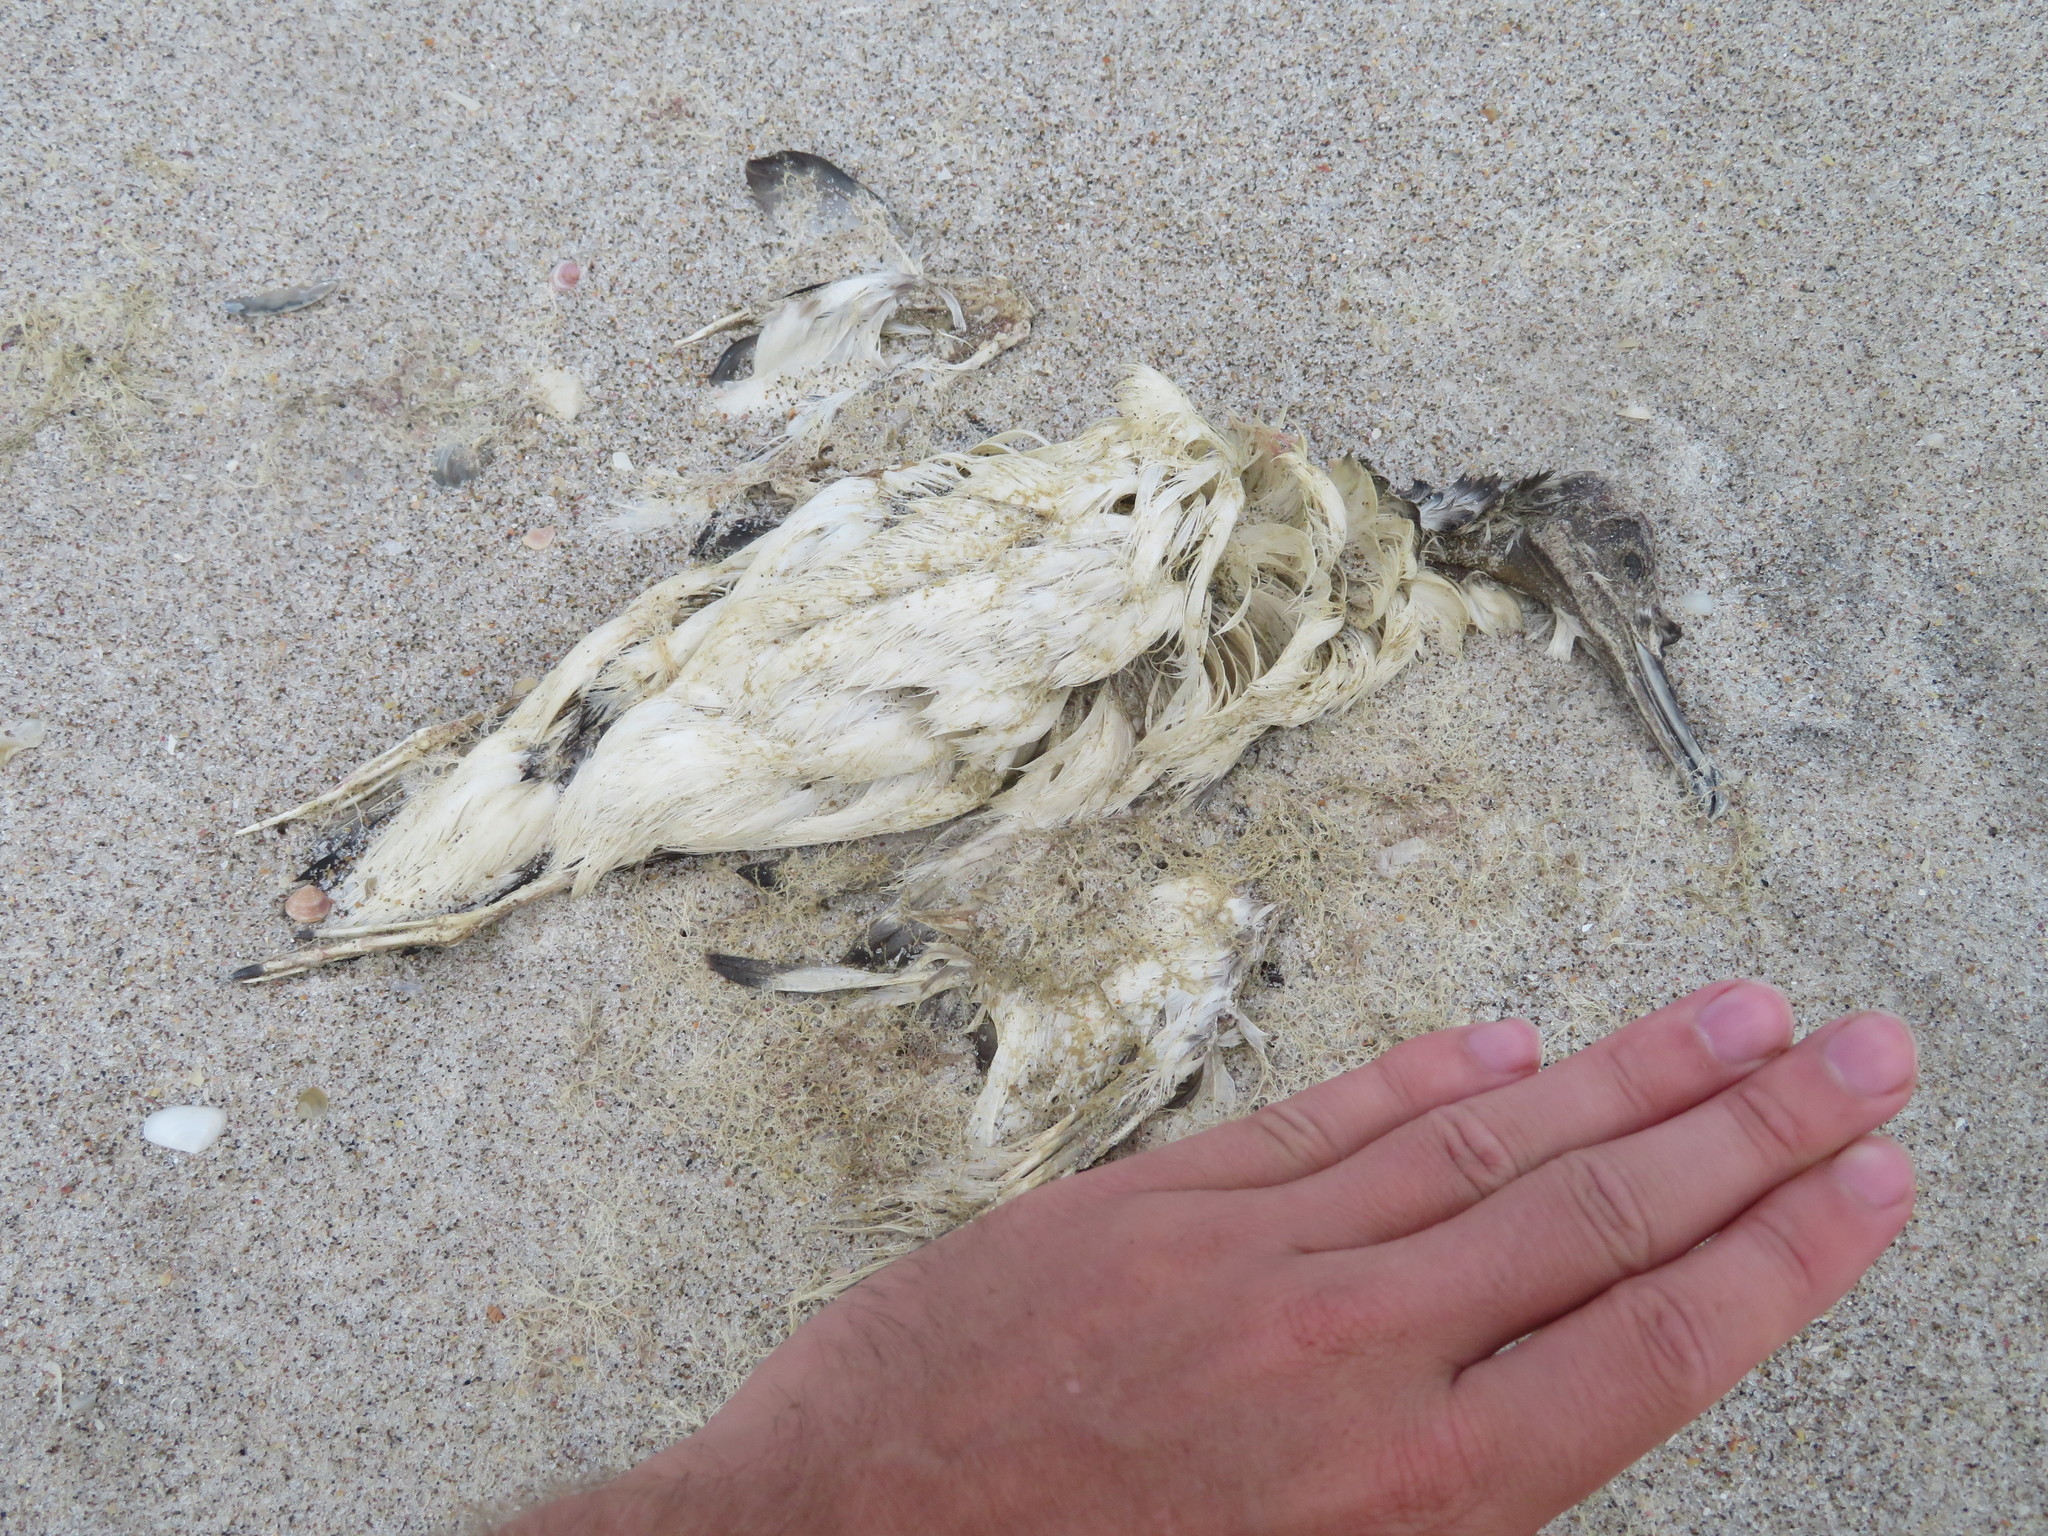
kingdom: Animalia
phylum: Chordata
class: Aves
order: Procellariiformes
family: Procellariidae
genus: Puffinus
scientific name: Puffinus gavia
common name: Fluttering shearwater
